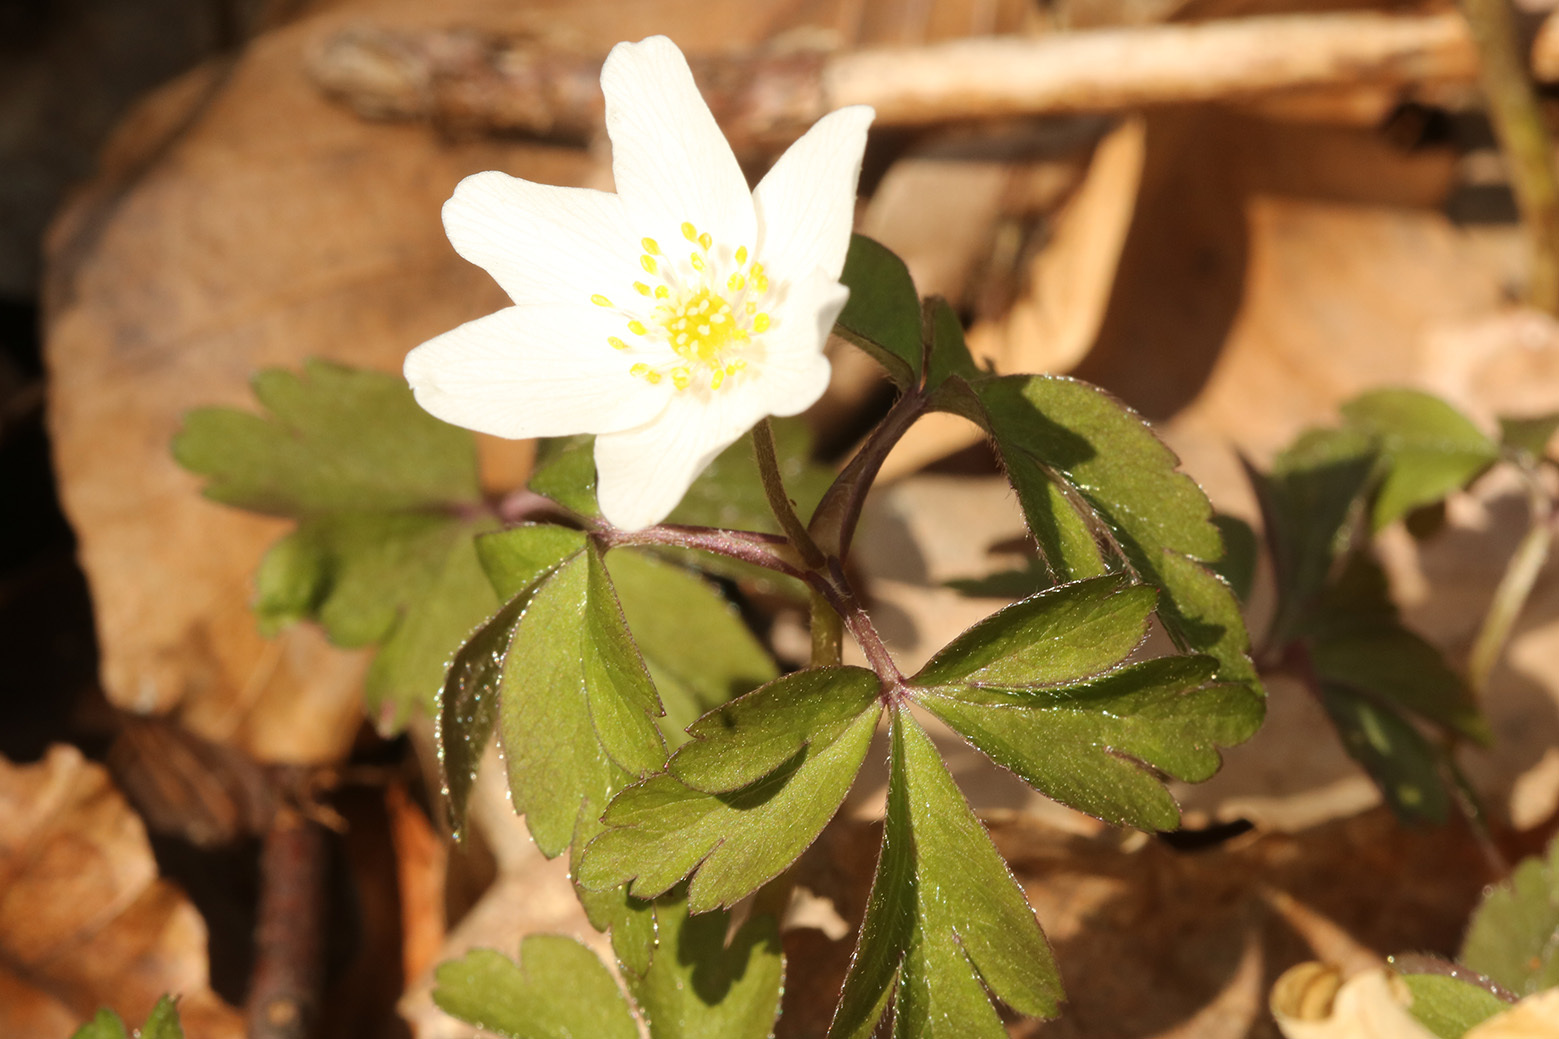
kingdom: Plantae
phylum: Tracheophyta
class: Magnoliopsida
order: Ranunculales
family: Ranunculaceae
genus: Anemone
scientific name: Anemone nemorosa
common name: Wood anemone
